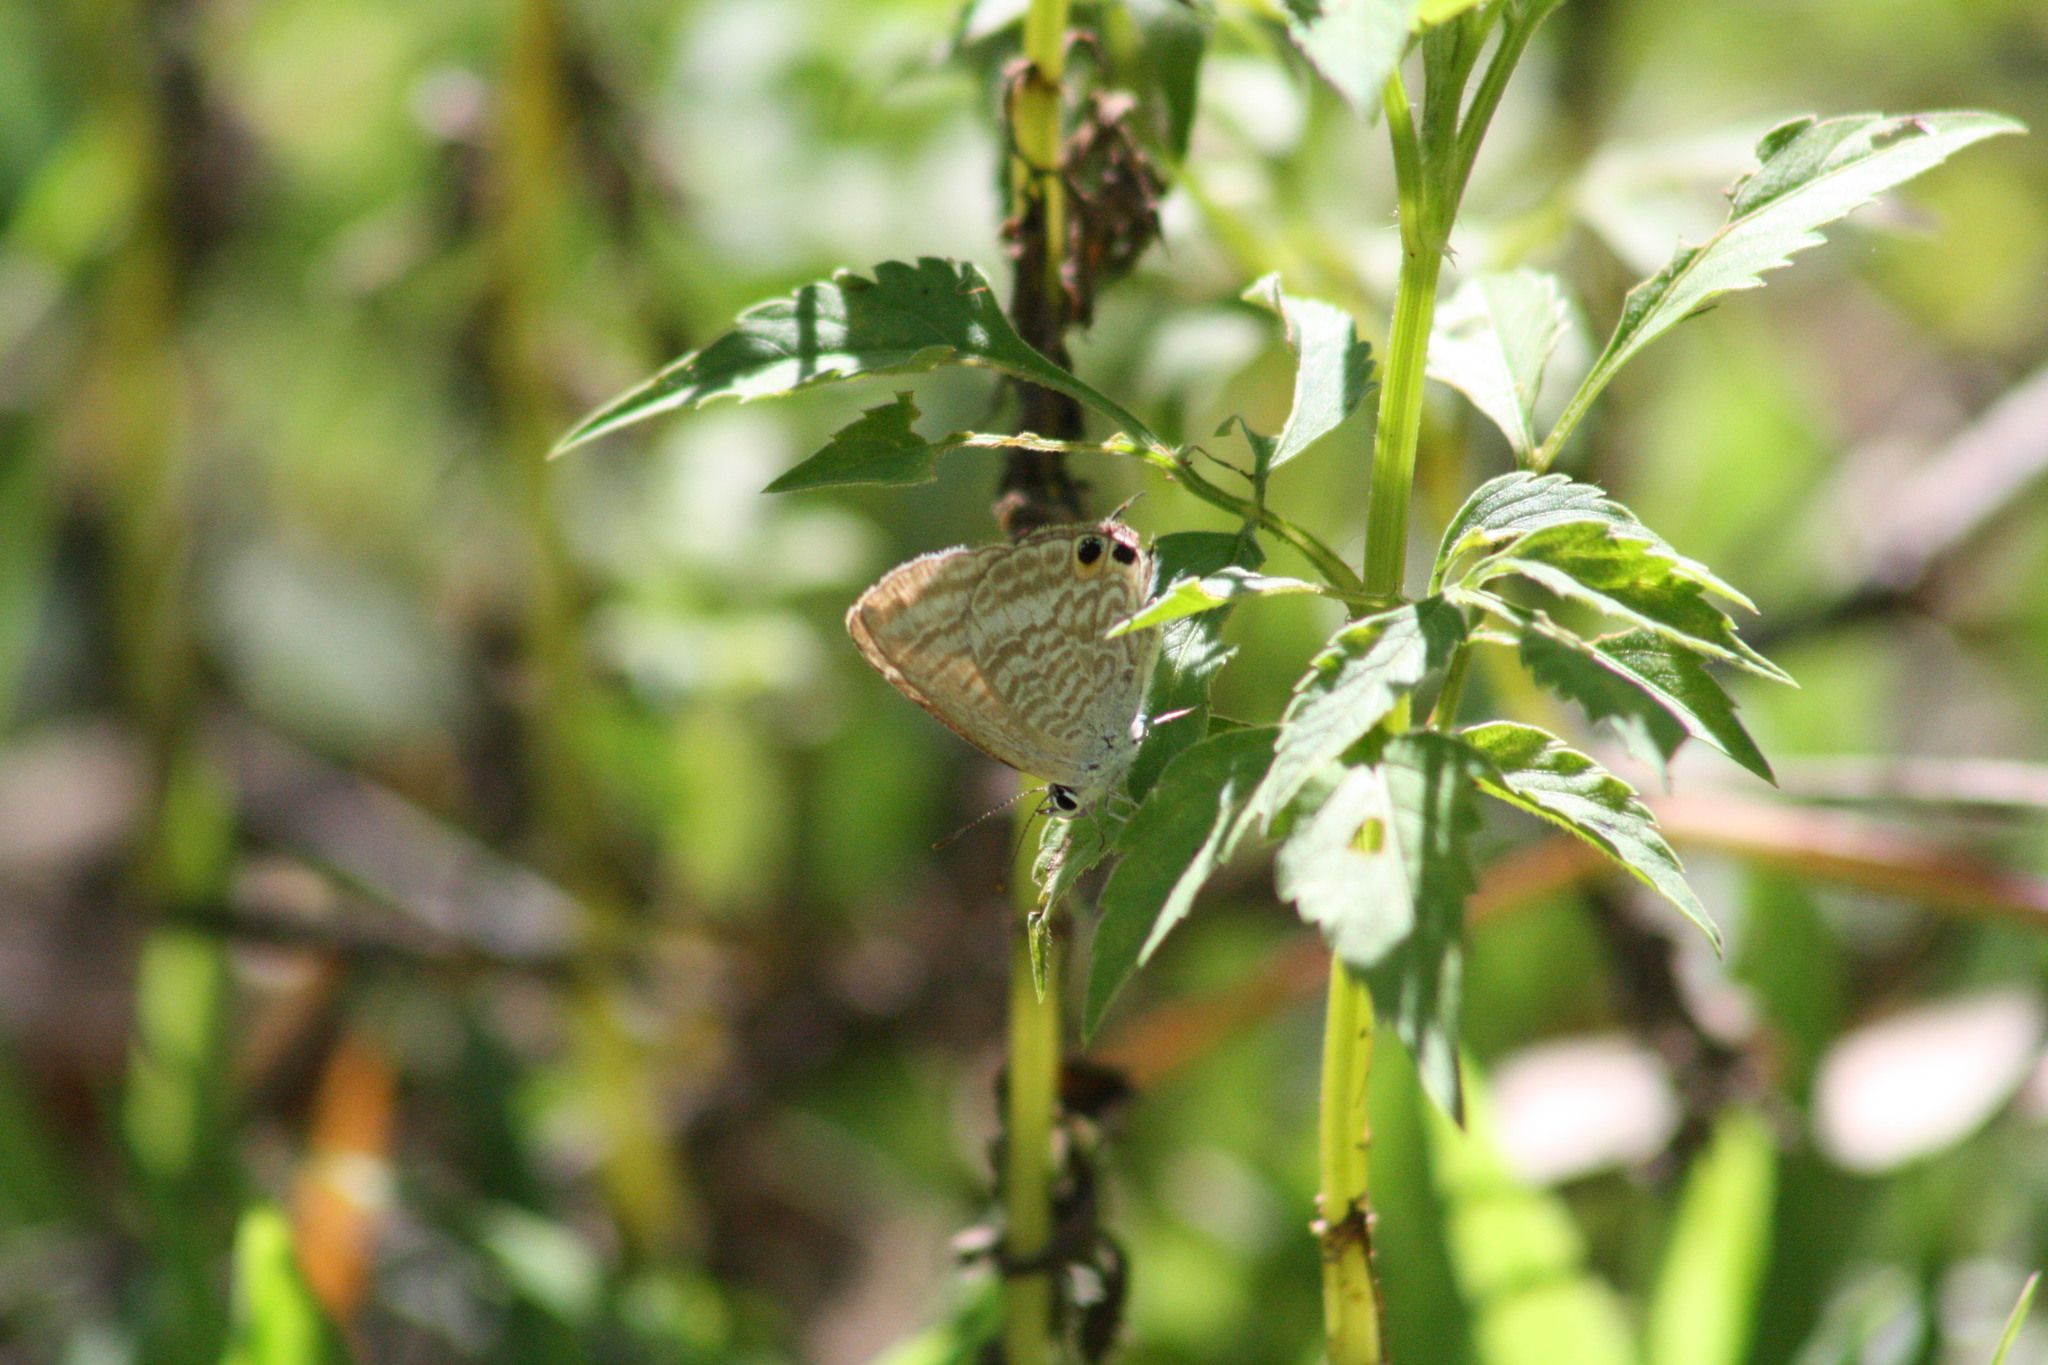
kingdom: Animalia
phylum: Arthropoda
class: Insecta
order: Lepidoptera
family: Lycaenidae
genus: Lampides
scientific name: Lampides boeticus
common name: Long-tailed blue
